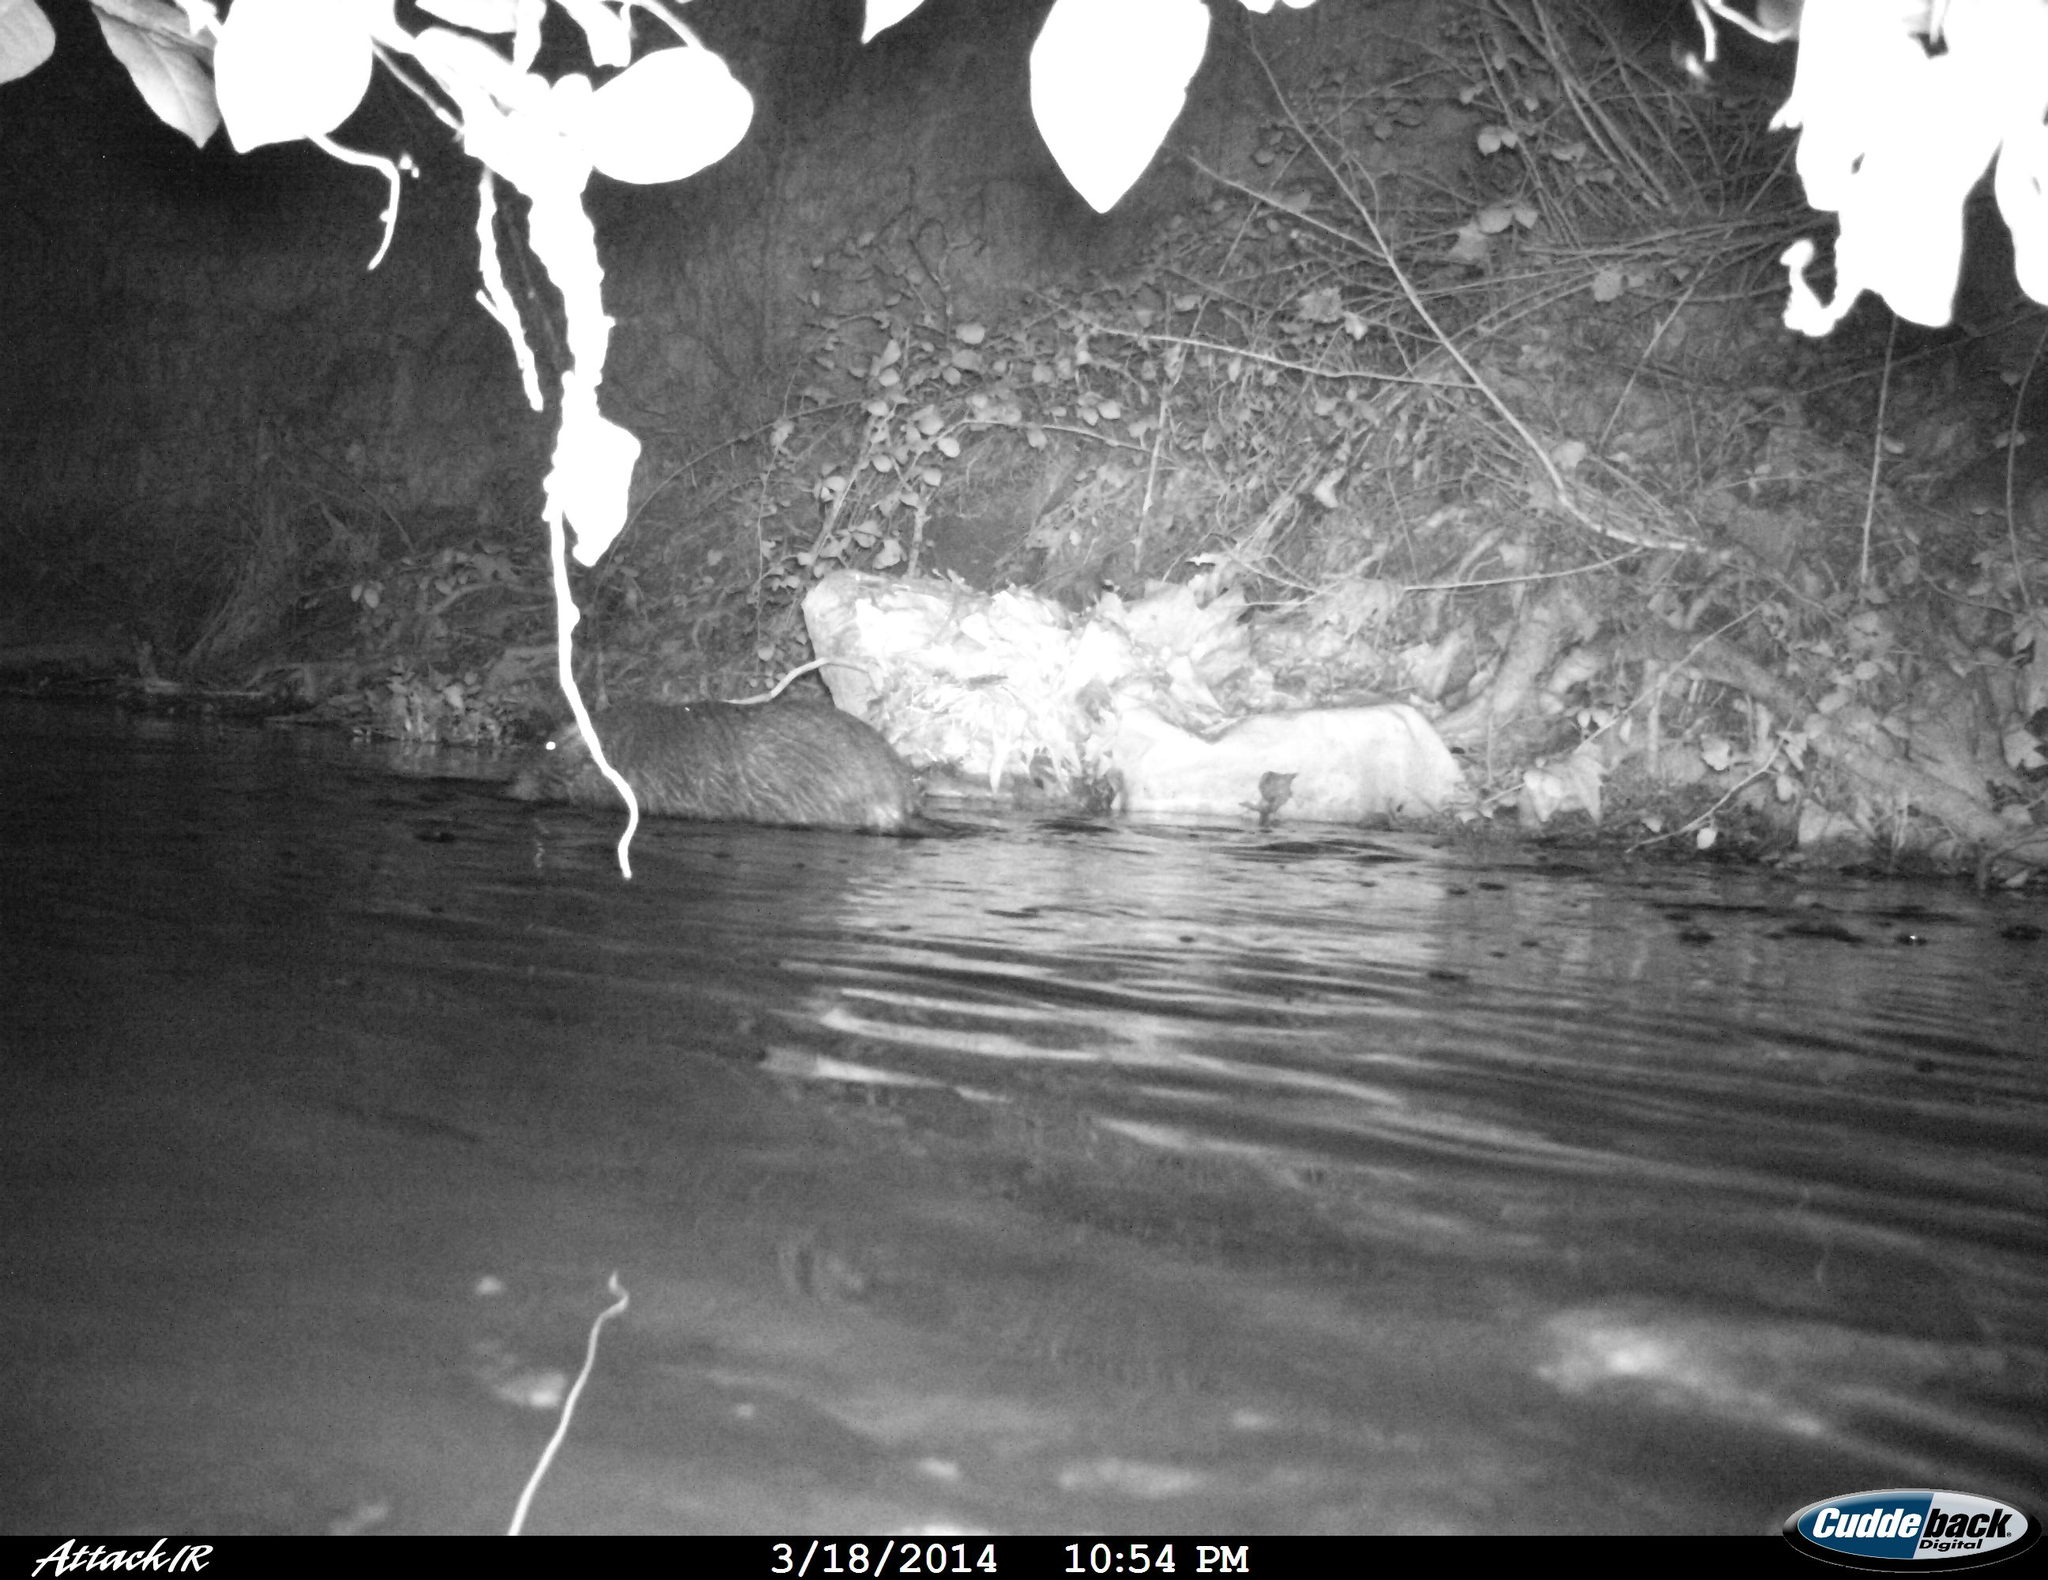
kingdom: Animalia
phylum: Chordata
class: Mammalia
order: Rodentia
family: Myocastoridae
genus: Myocastor
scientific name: Myocastor coypus
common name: Coypu
